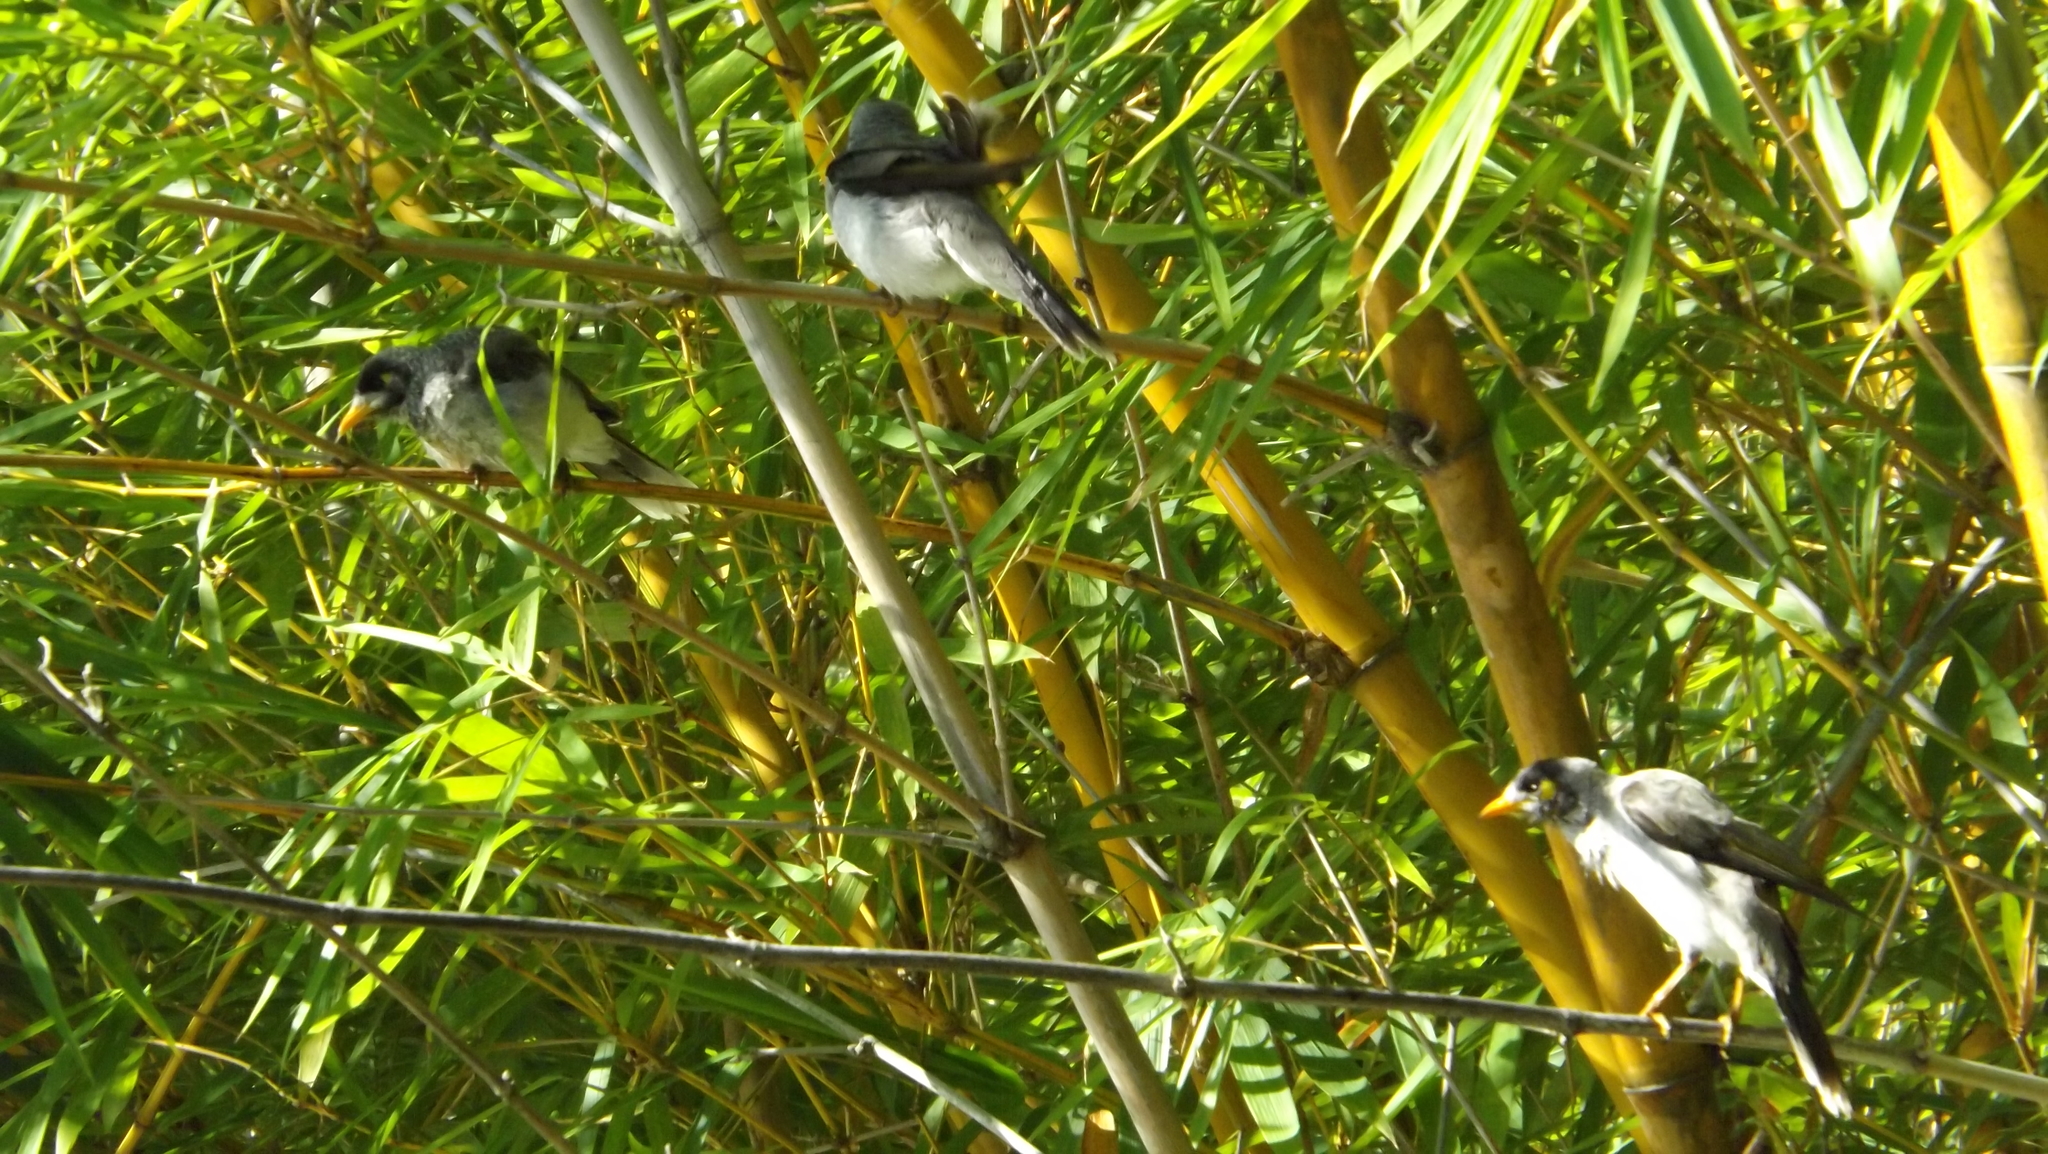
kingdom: Animalia
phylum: Chordata
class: Aves
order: Passeriformes
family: Meliphagidae
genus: Manorina
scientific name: Manorina melanocephala
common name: Noisy miner
